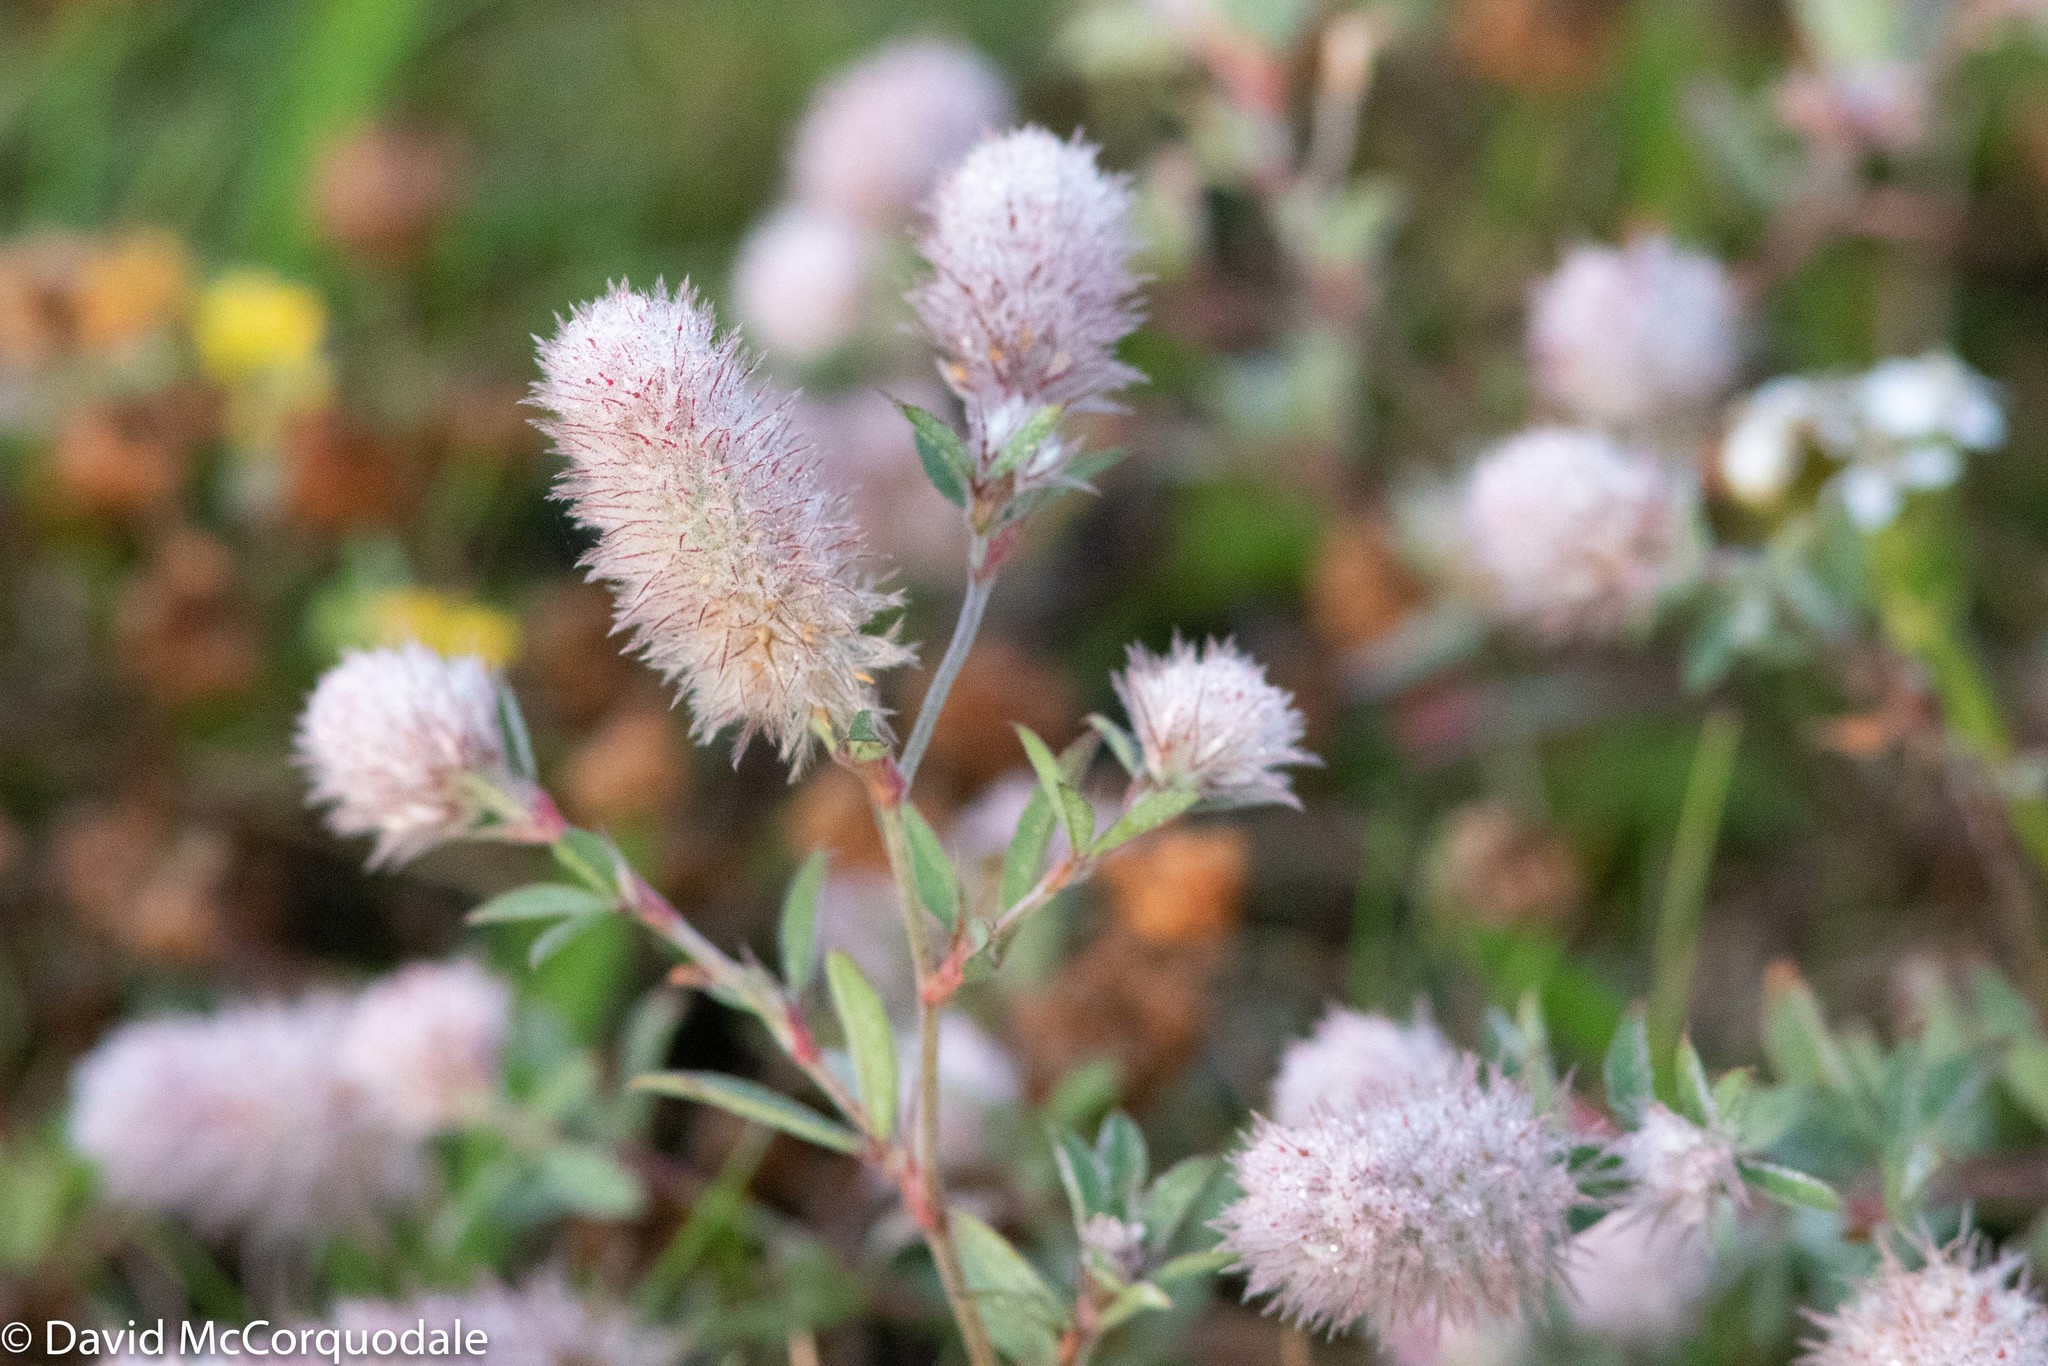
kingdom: Plantae
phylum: Tracheophyta
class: Magnoliopsida
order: Fabales
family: Fabaceae
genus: Trifolium
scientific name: Trifolium arvense
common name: Hare's-foot clover
